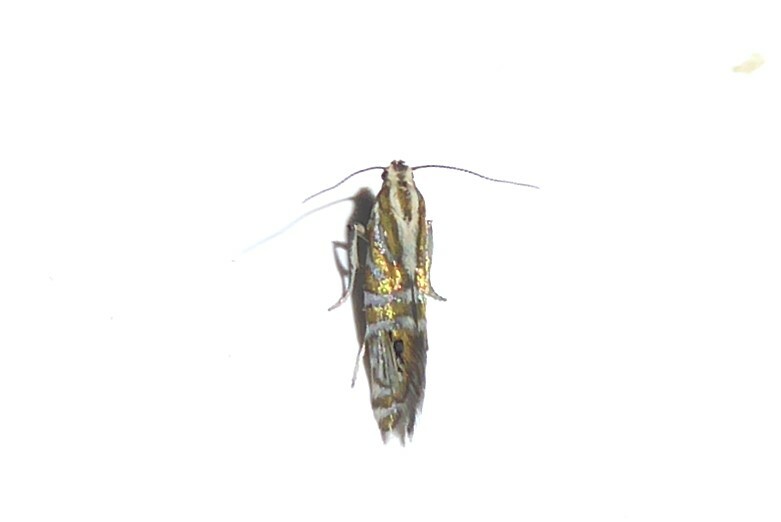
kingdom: Animalia
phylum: Arthropoda
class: Insecta
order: Lepidoptera
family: Glyphipterigidae
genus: Glyphipterix
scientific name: Glyphipterix triselena
